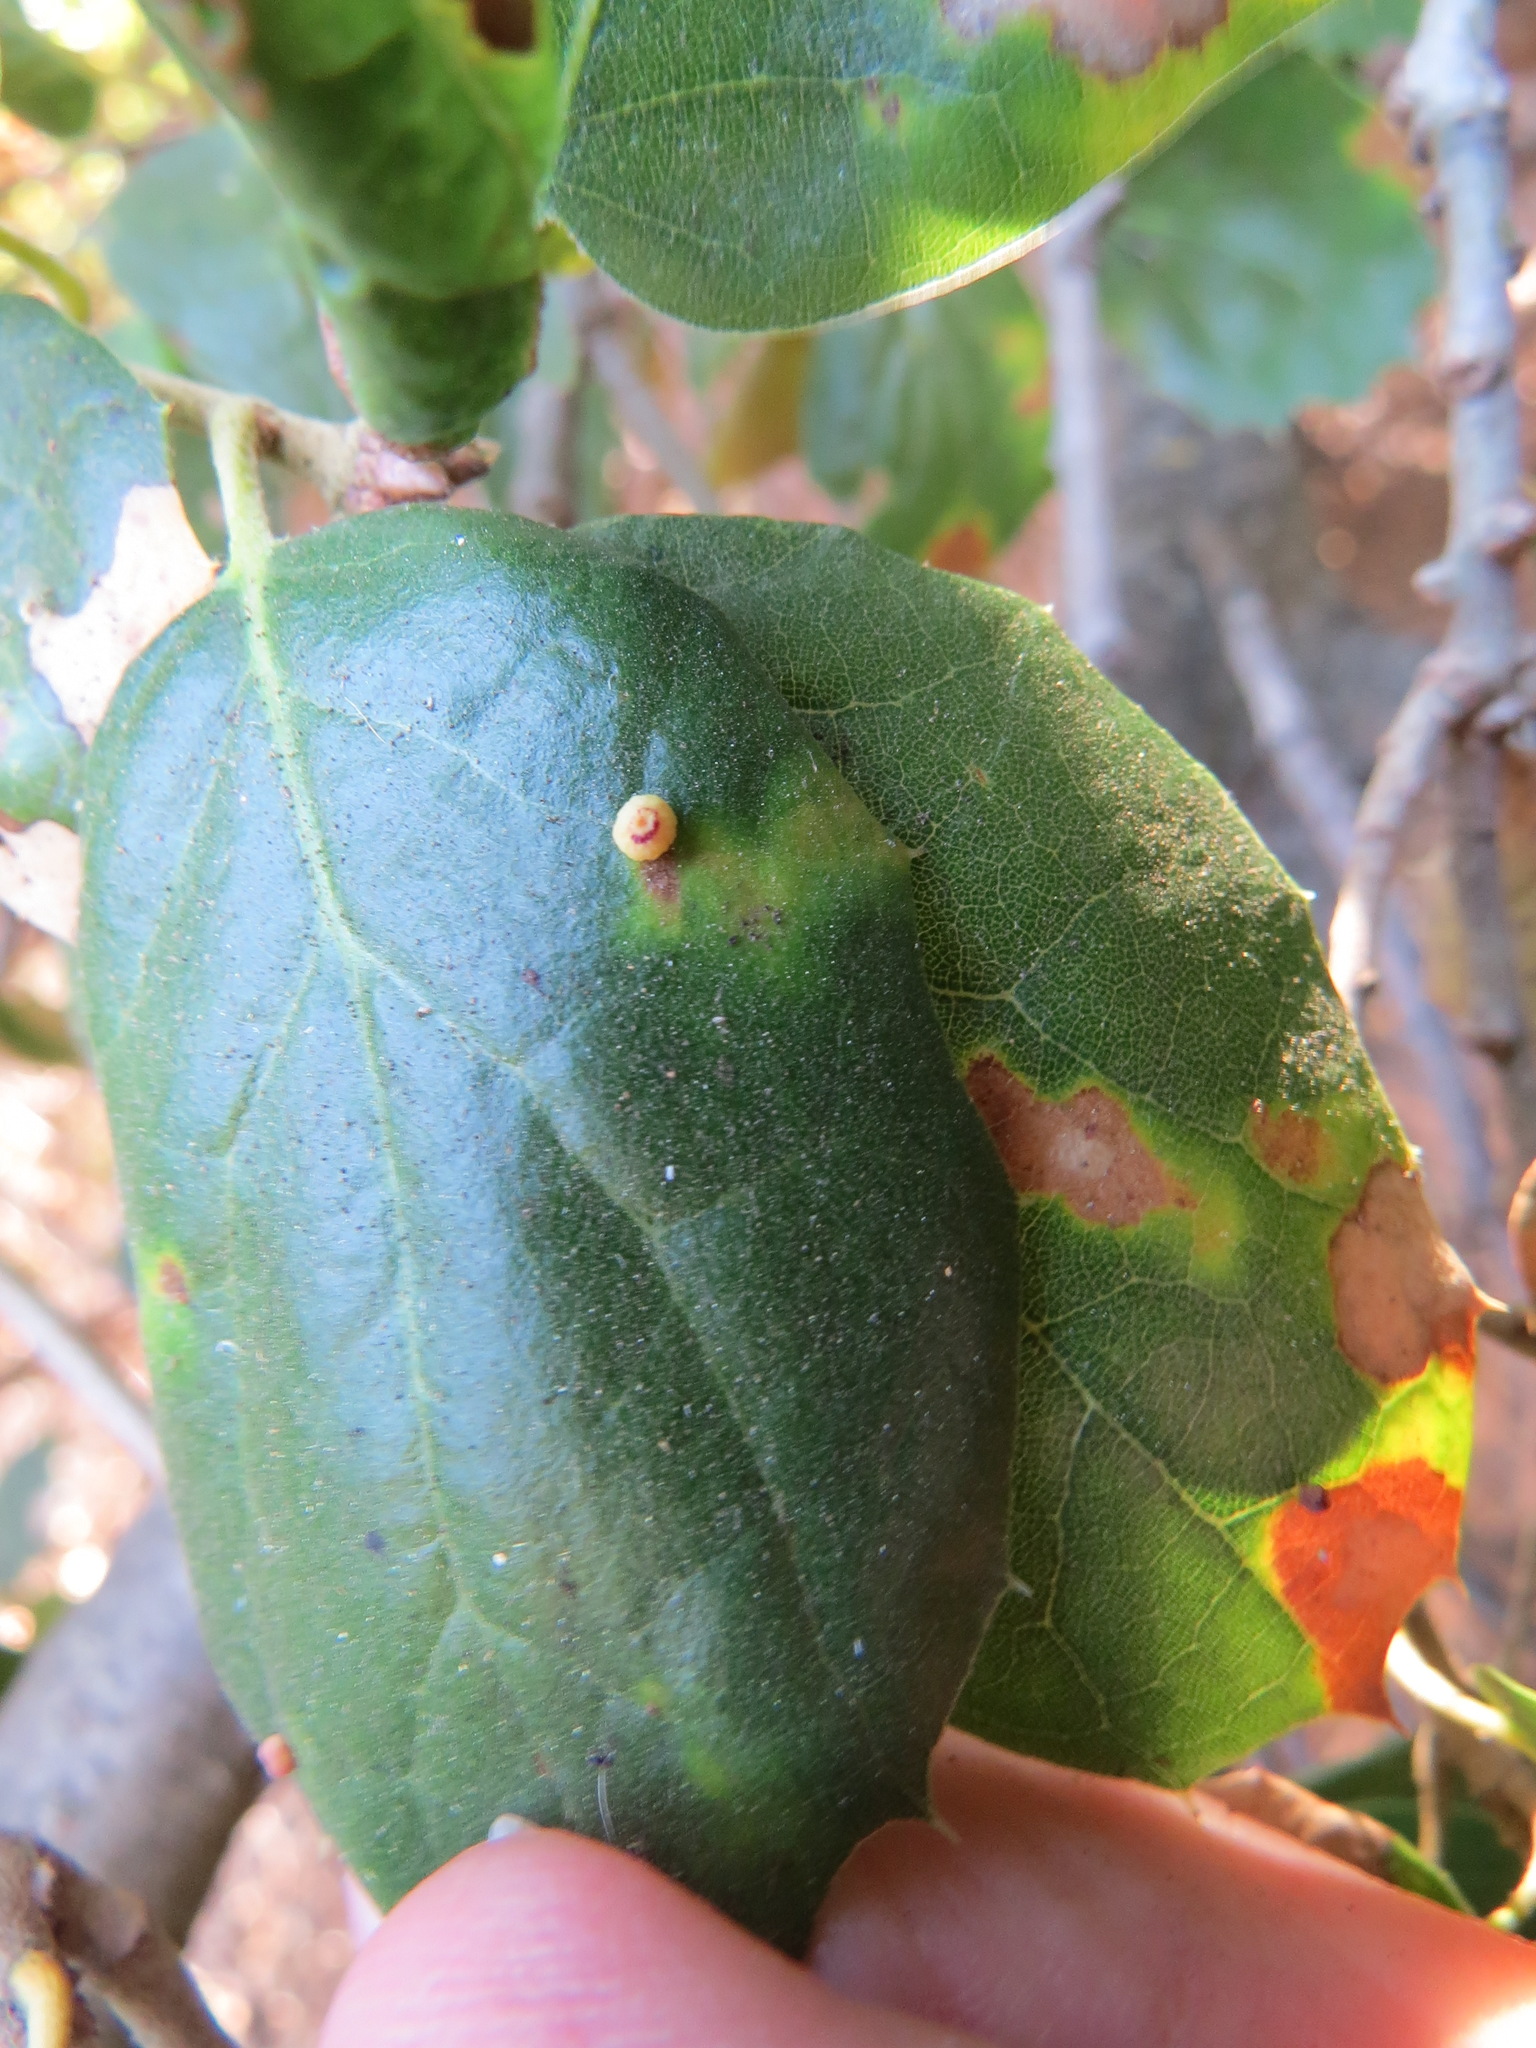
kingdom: Animalia
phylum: Arthropoda
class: Insecta
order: Hymenoptera
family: Cynipidae
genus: Dryocosmus
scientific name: Dryocosmus
